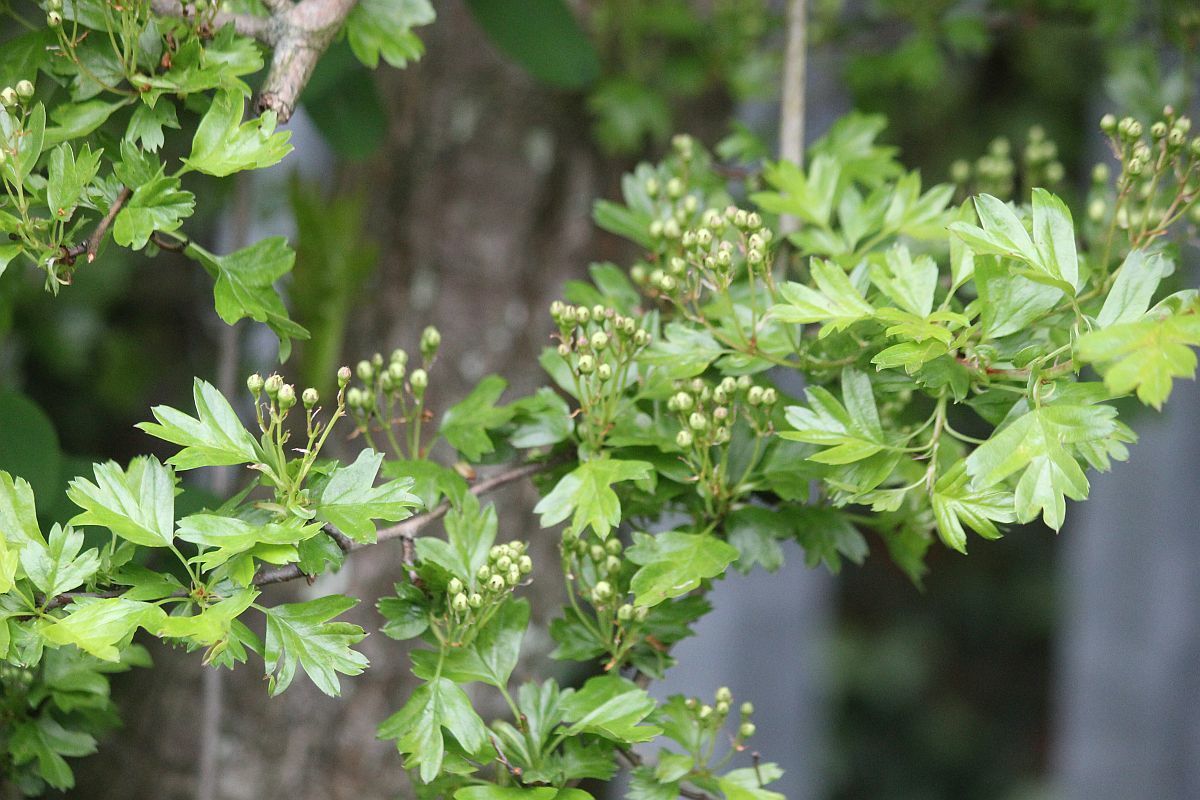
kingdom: Plantae
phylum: Tracheophyta
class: Magnoliopsida
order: Rosales
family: Rosaceae
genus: Crataegus
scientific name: Crataegus monogyna
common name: Hawthorn
